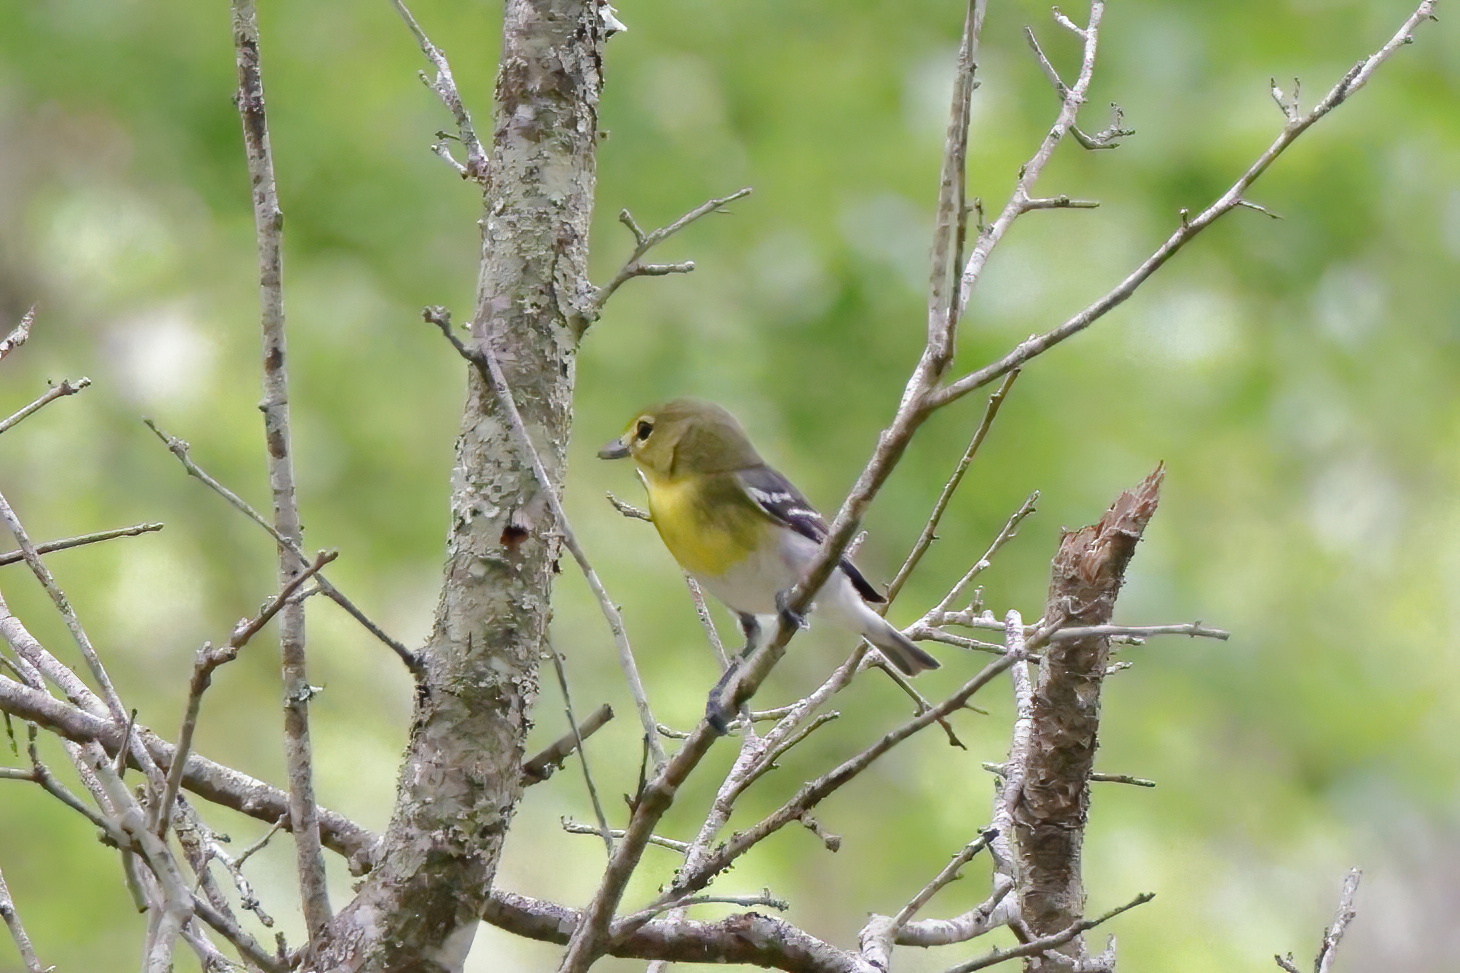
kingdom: Animalia
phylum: Chordata
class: Aves
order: Passeriformes
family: Vireonidae
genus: Vireo
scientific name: Vireo flavifrons
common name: Yellow-throated vireo
